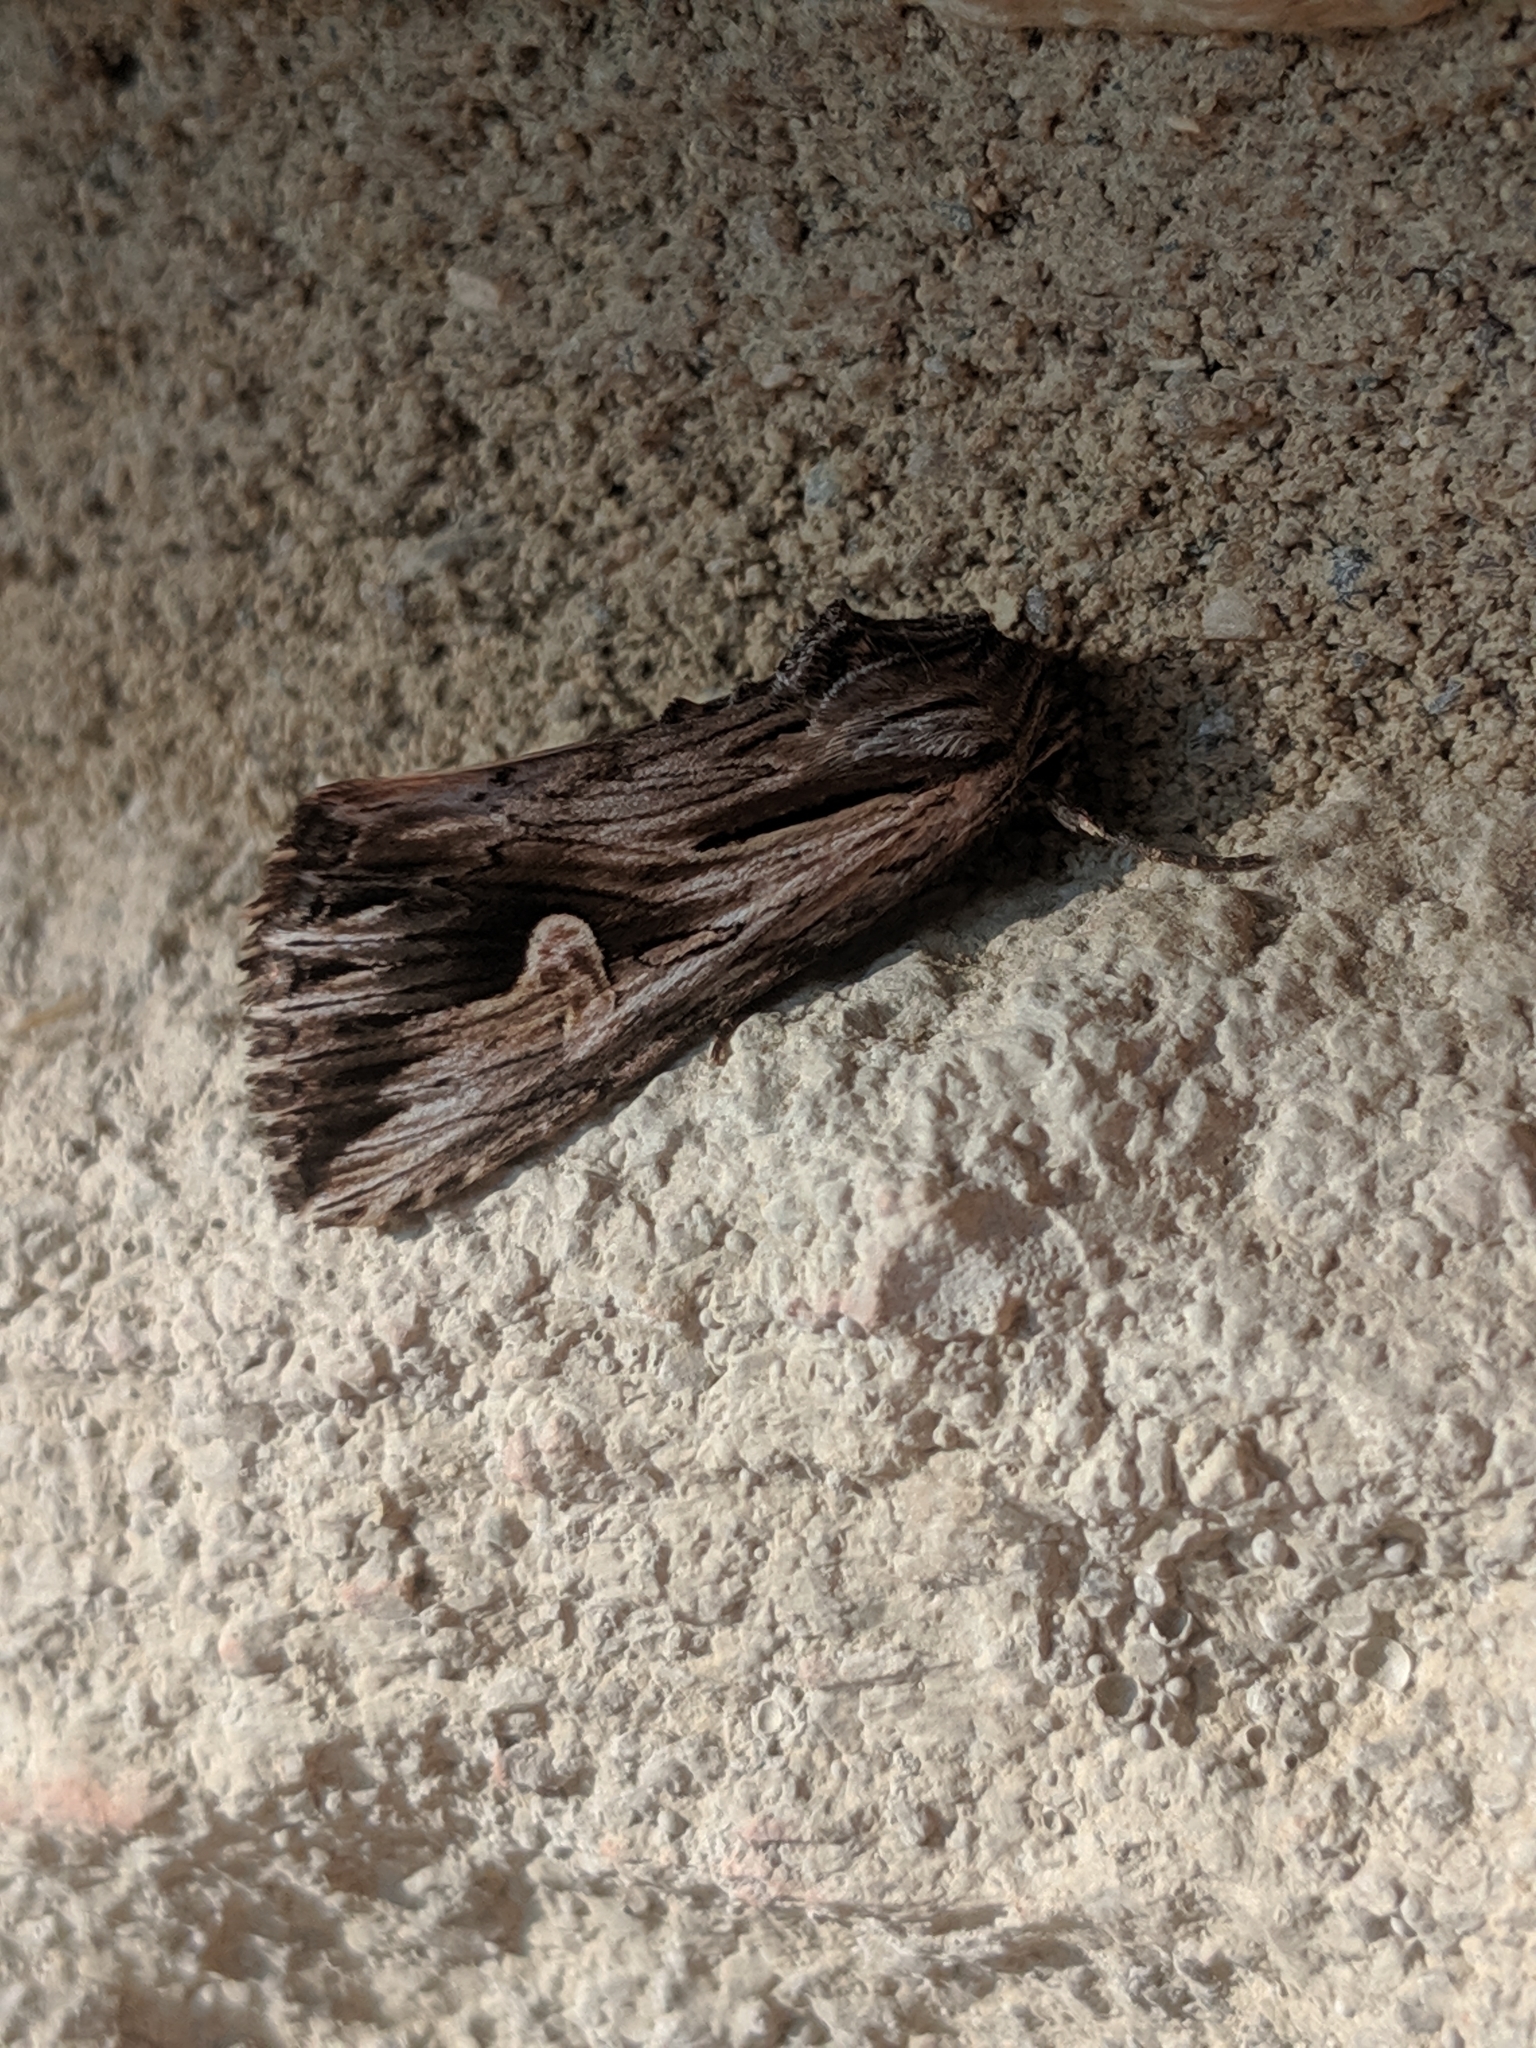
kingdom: Animalia
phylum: Arthropoda
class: Insecta
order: Lepidoptera
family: Noctuidae
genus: Nedra
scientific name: Nedra ramosula
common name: Gray half-spot
